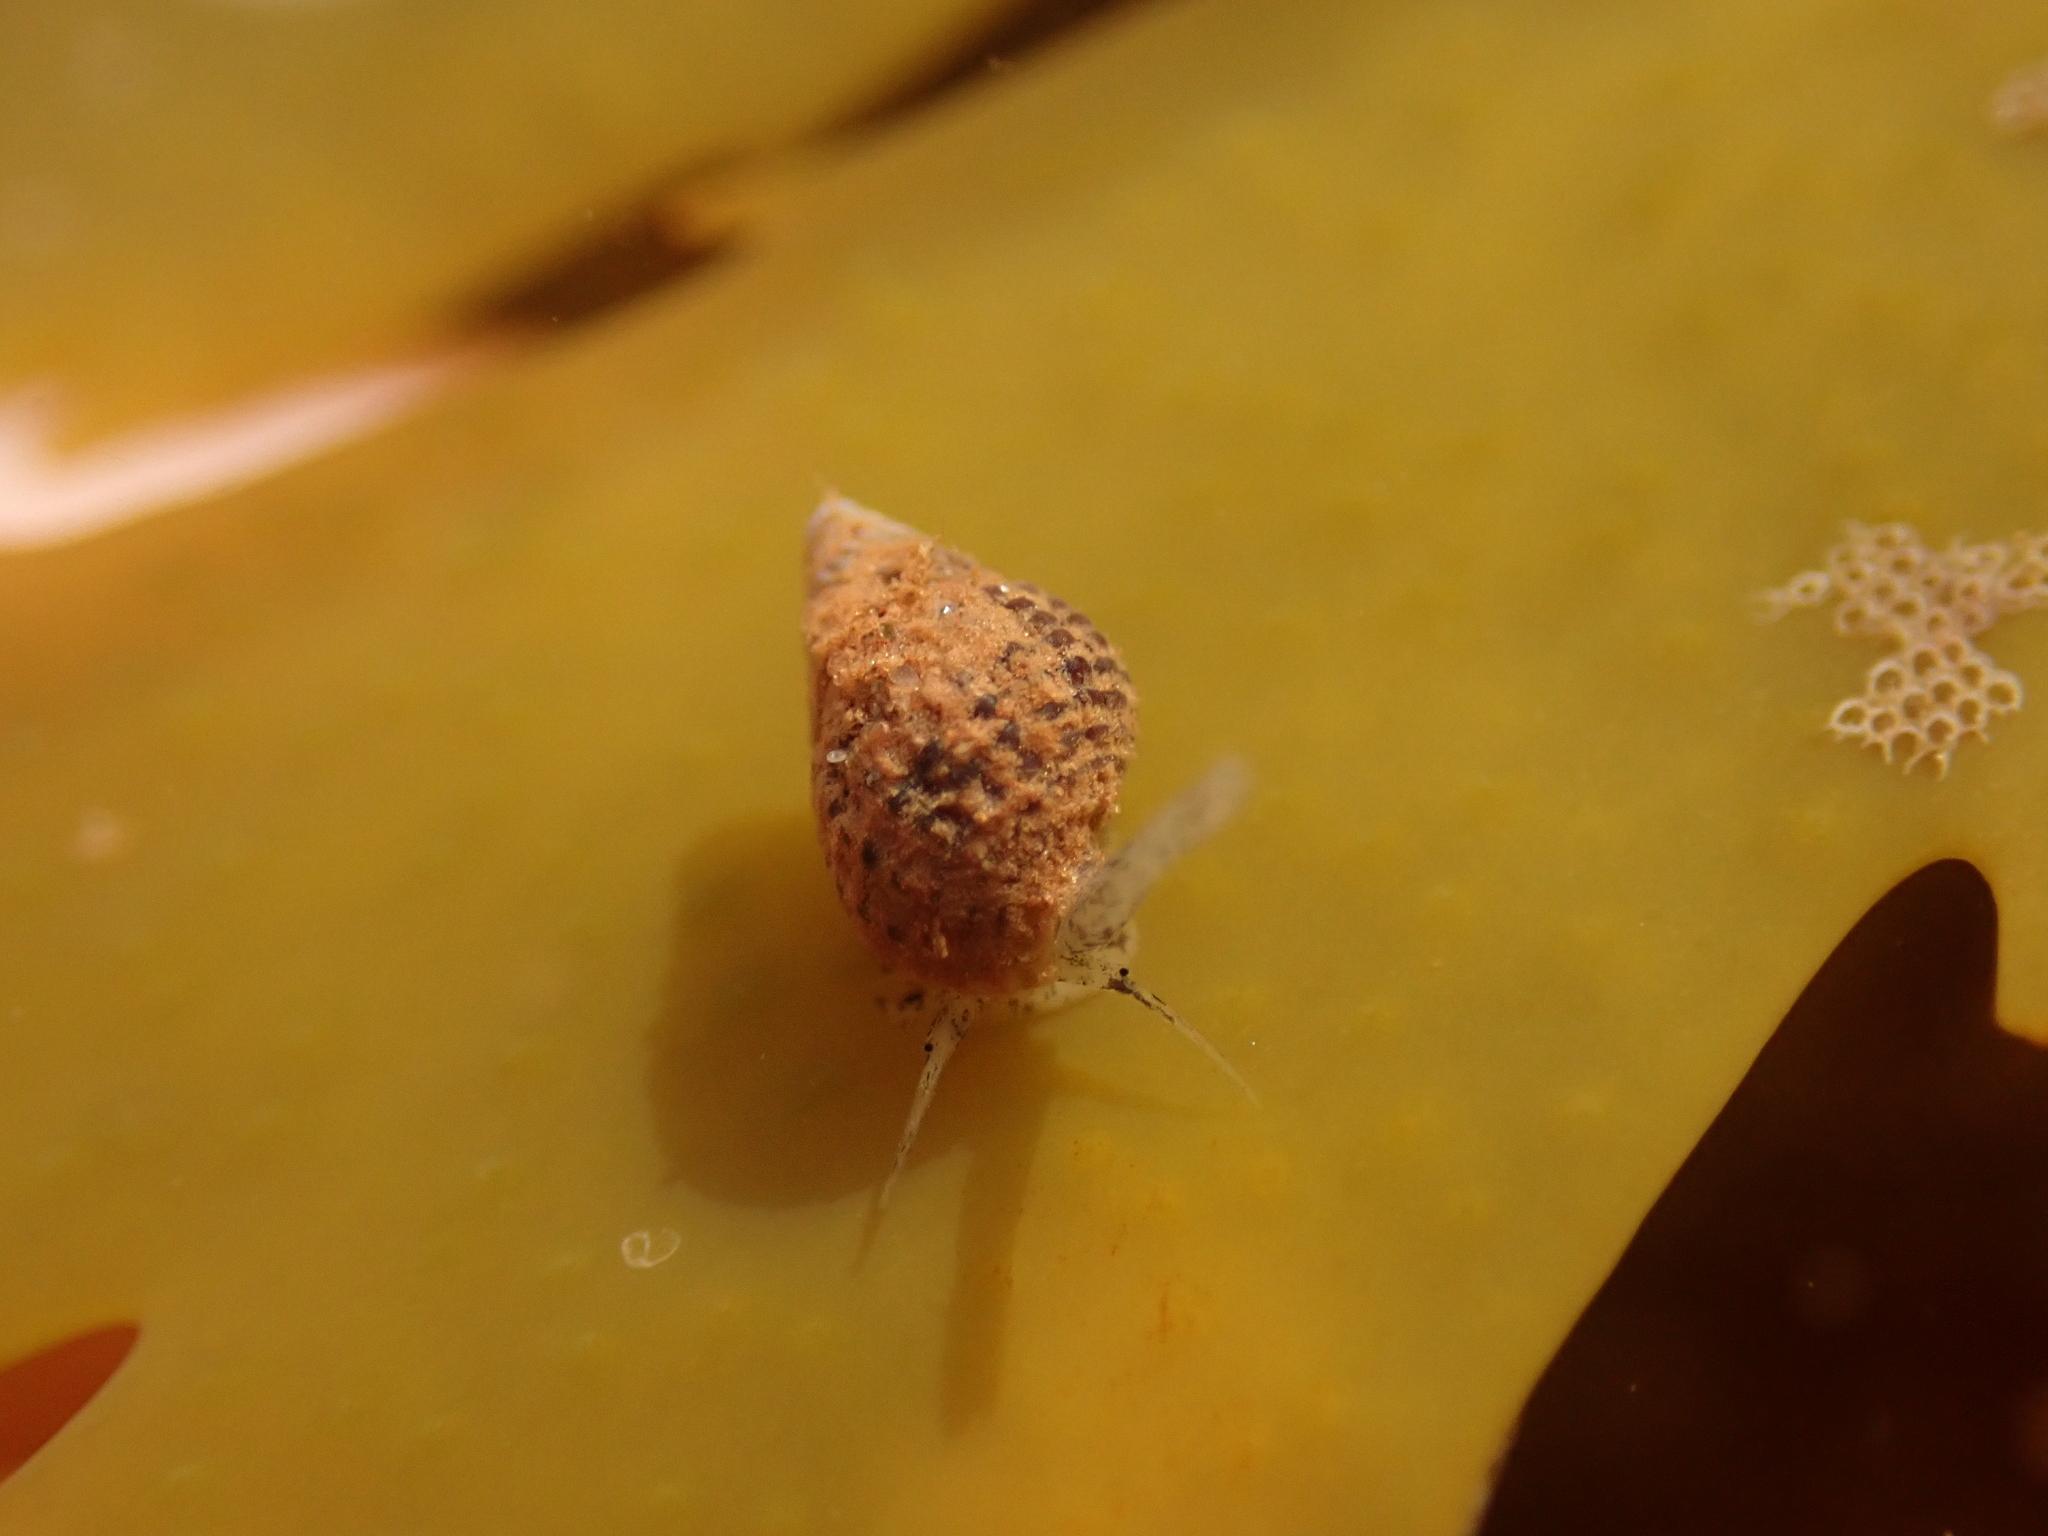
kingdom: Animalia
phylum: Mollusca
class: Gastropoda
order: Neogastropoda
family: Nassariidae
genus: Ilyanassa
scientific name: Ilyanassa trivittata
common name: Three-line mudsnail
